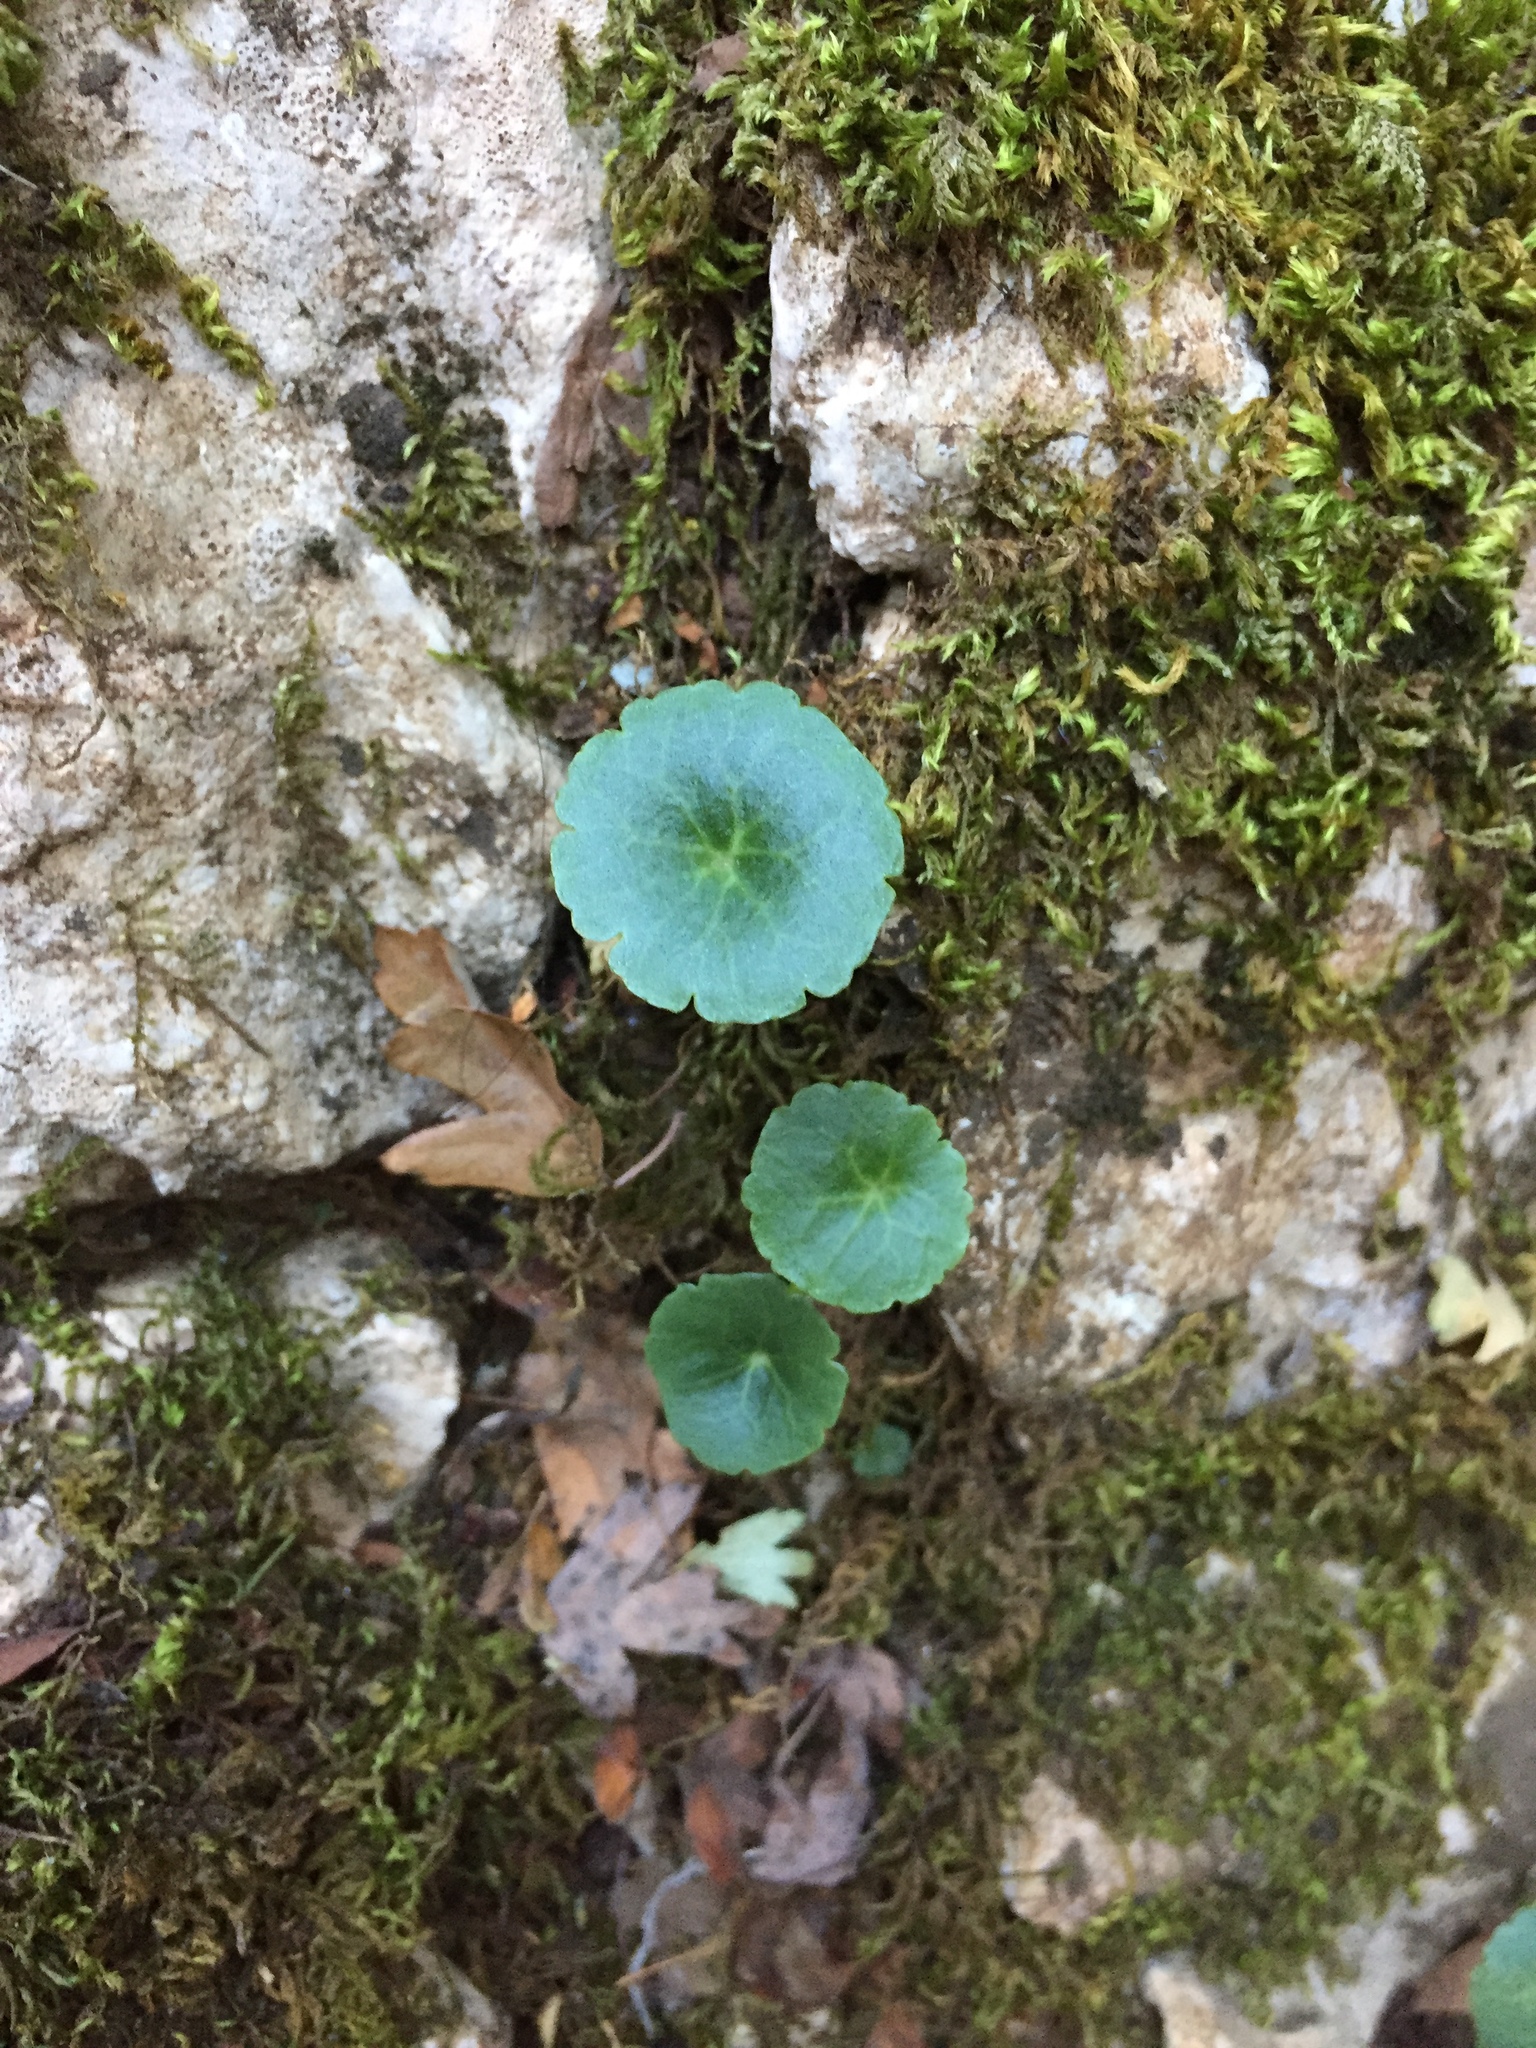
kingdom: Plantae
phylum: Tracheophyta
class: Magnoliopsida
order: Saxifragales
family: Crassulaceae
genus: Umbilicus
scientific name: Umbilicus rupestris
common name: Navelwort
